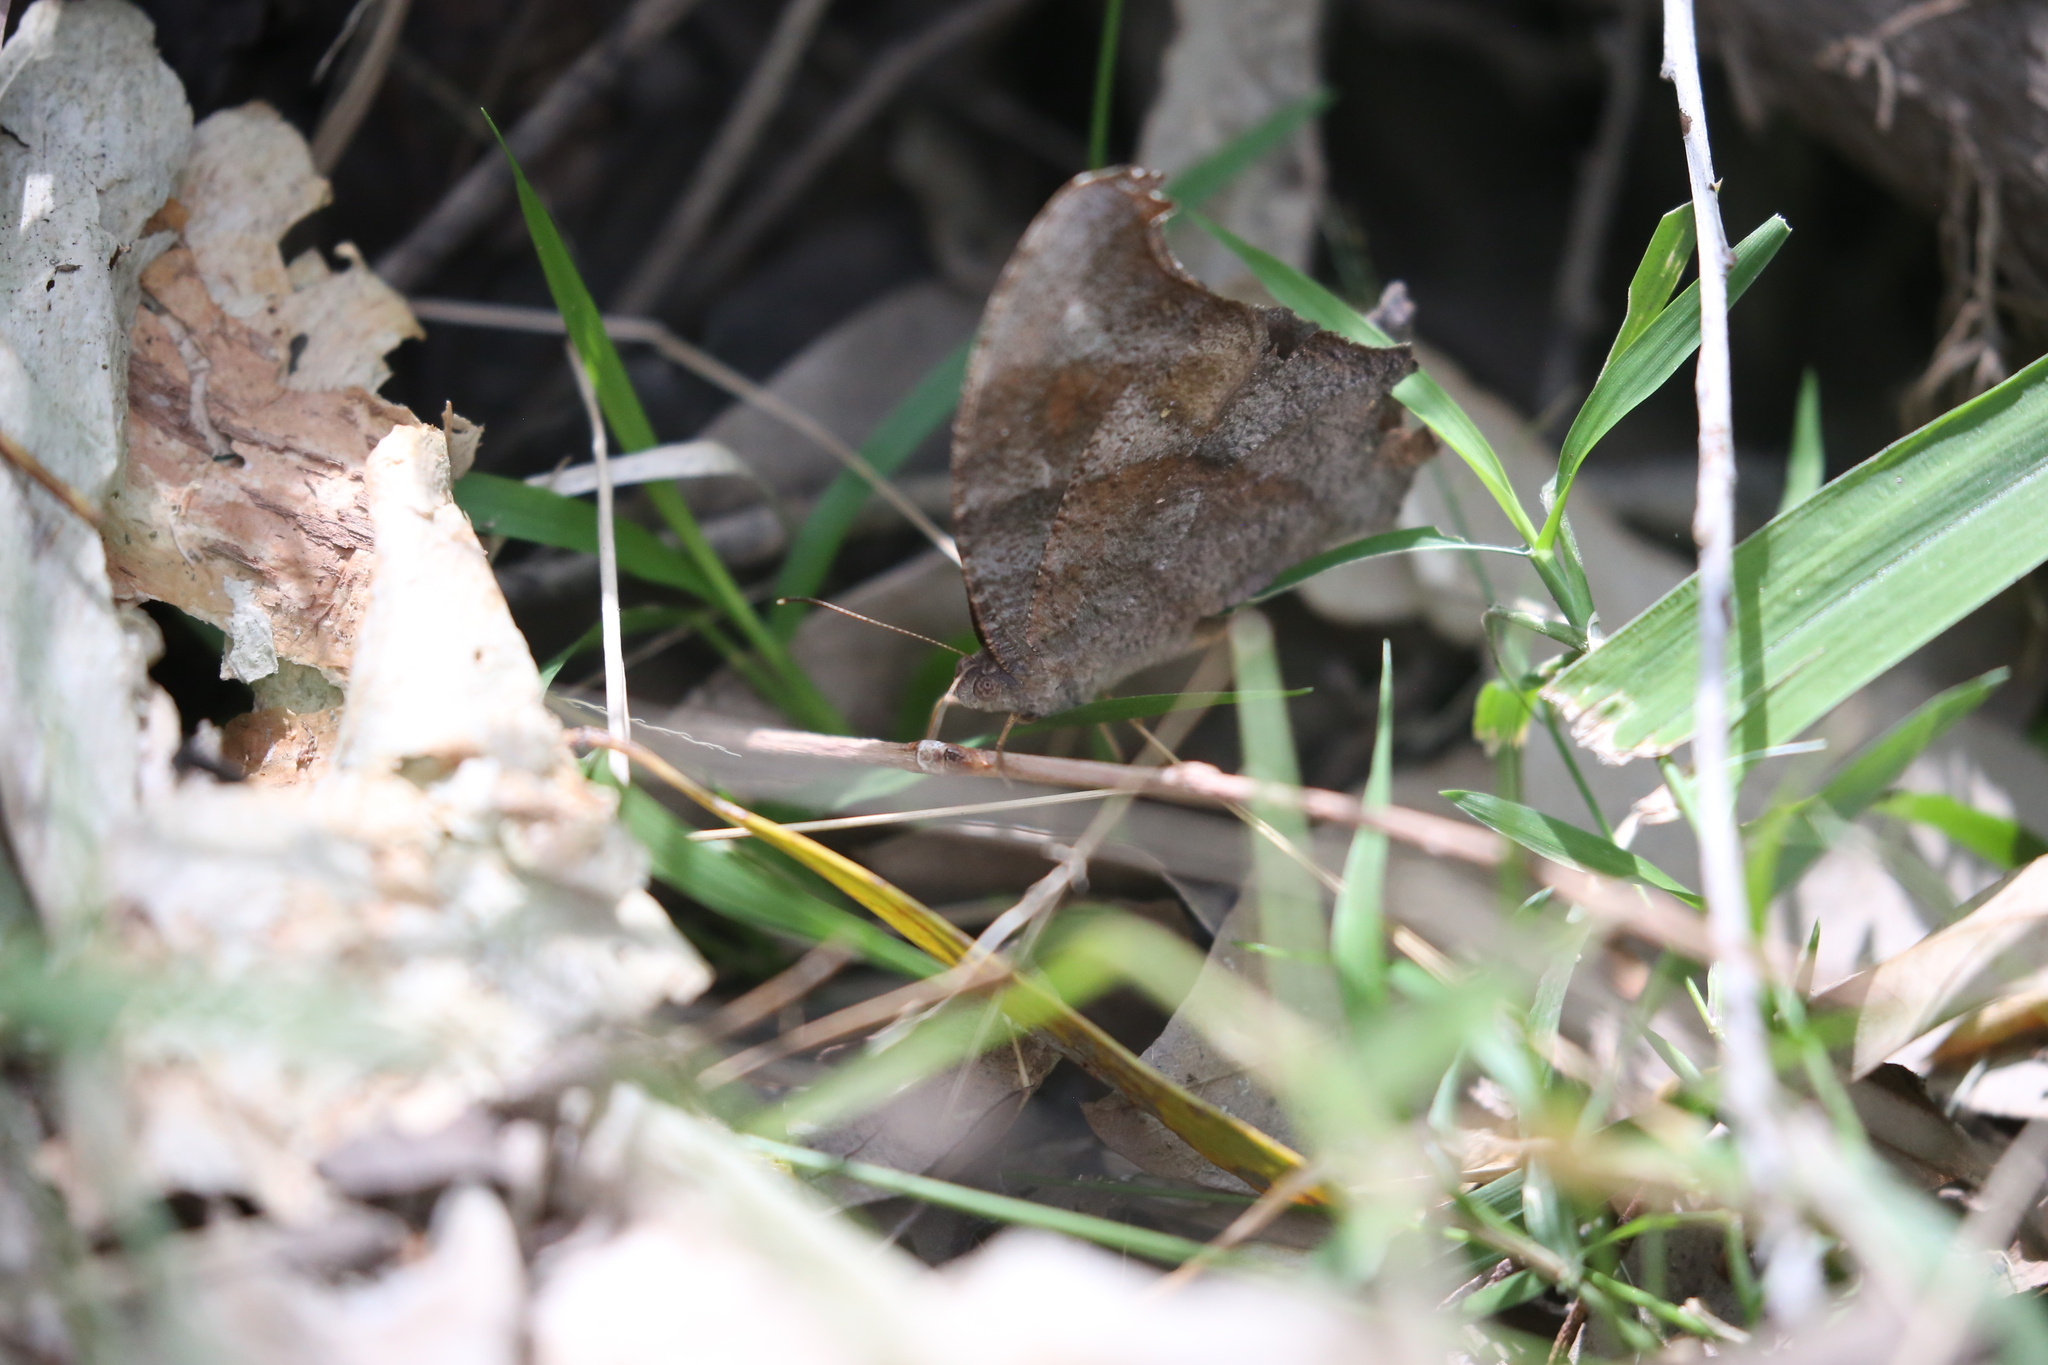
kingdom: Animalia
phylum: Arthropoda
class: Insecta
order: Lepidoptera
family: Nymphalidae
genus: Melanitis
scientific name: Melanitis leda
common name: Twilight brown
